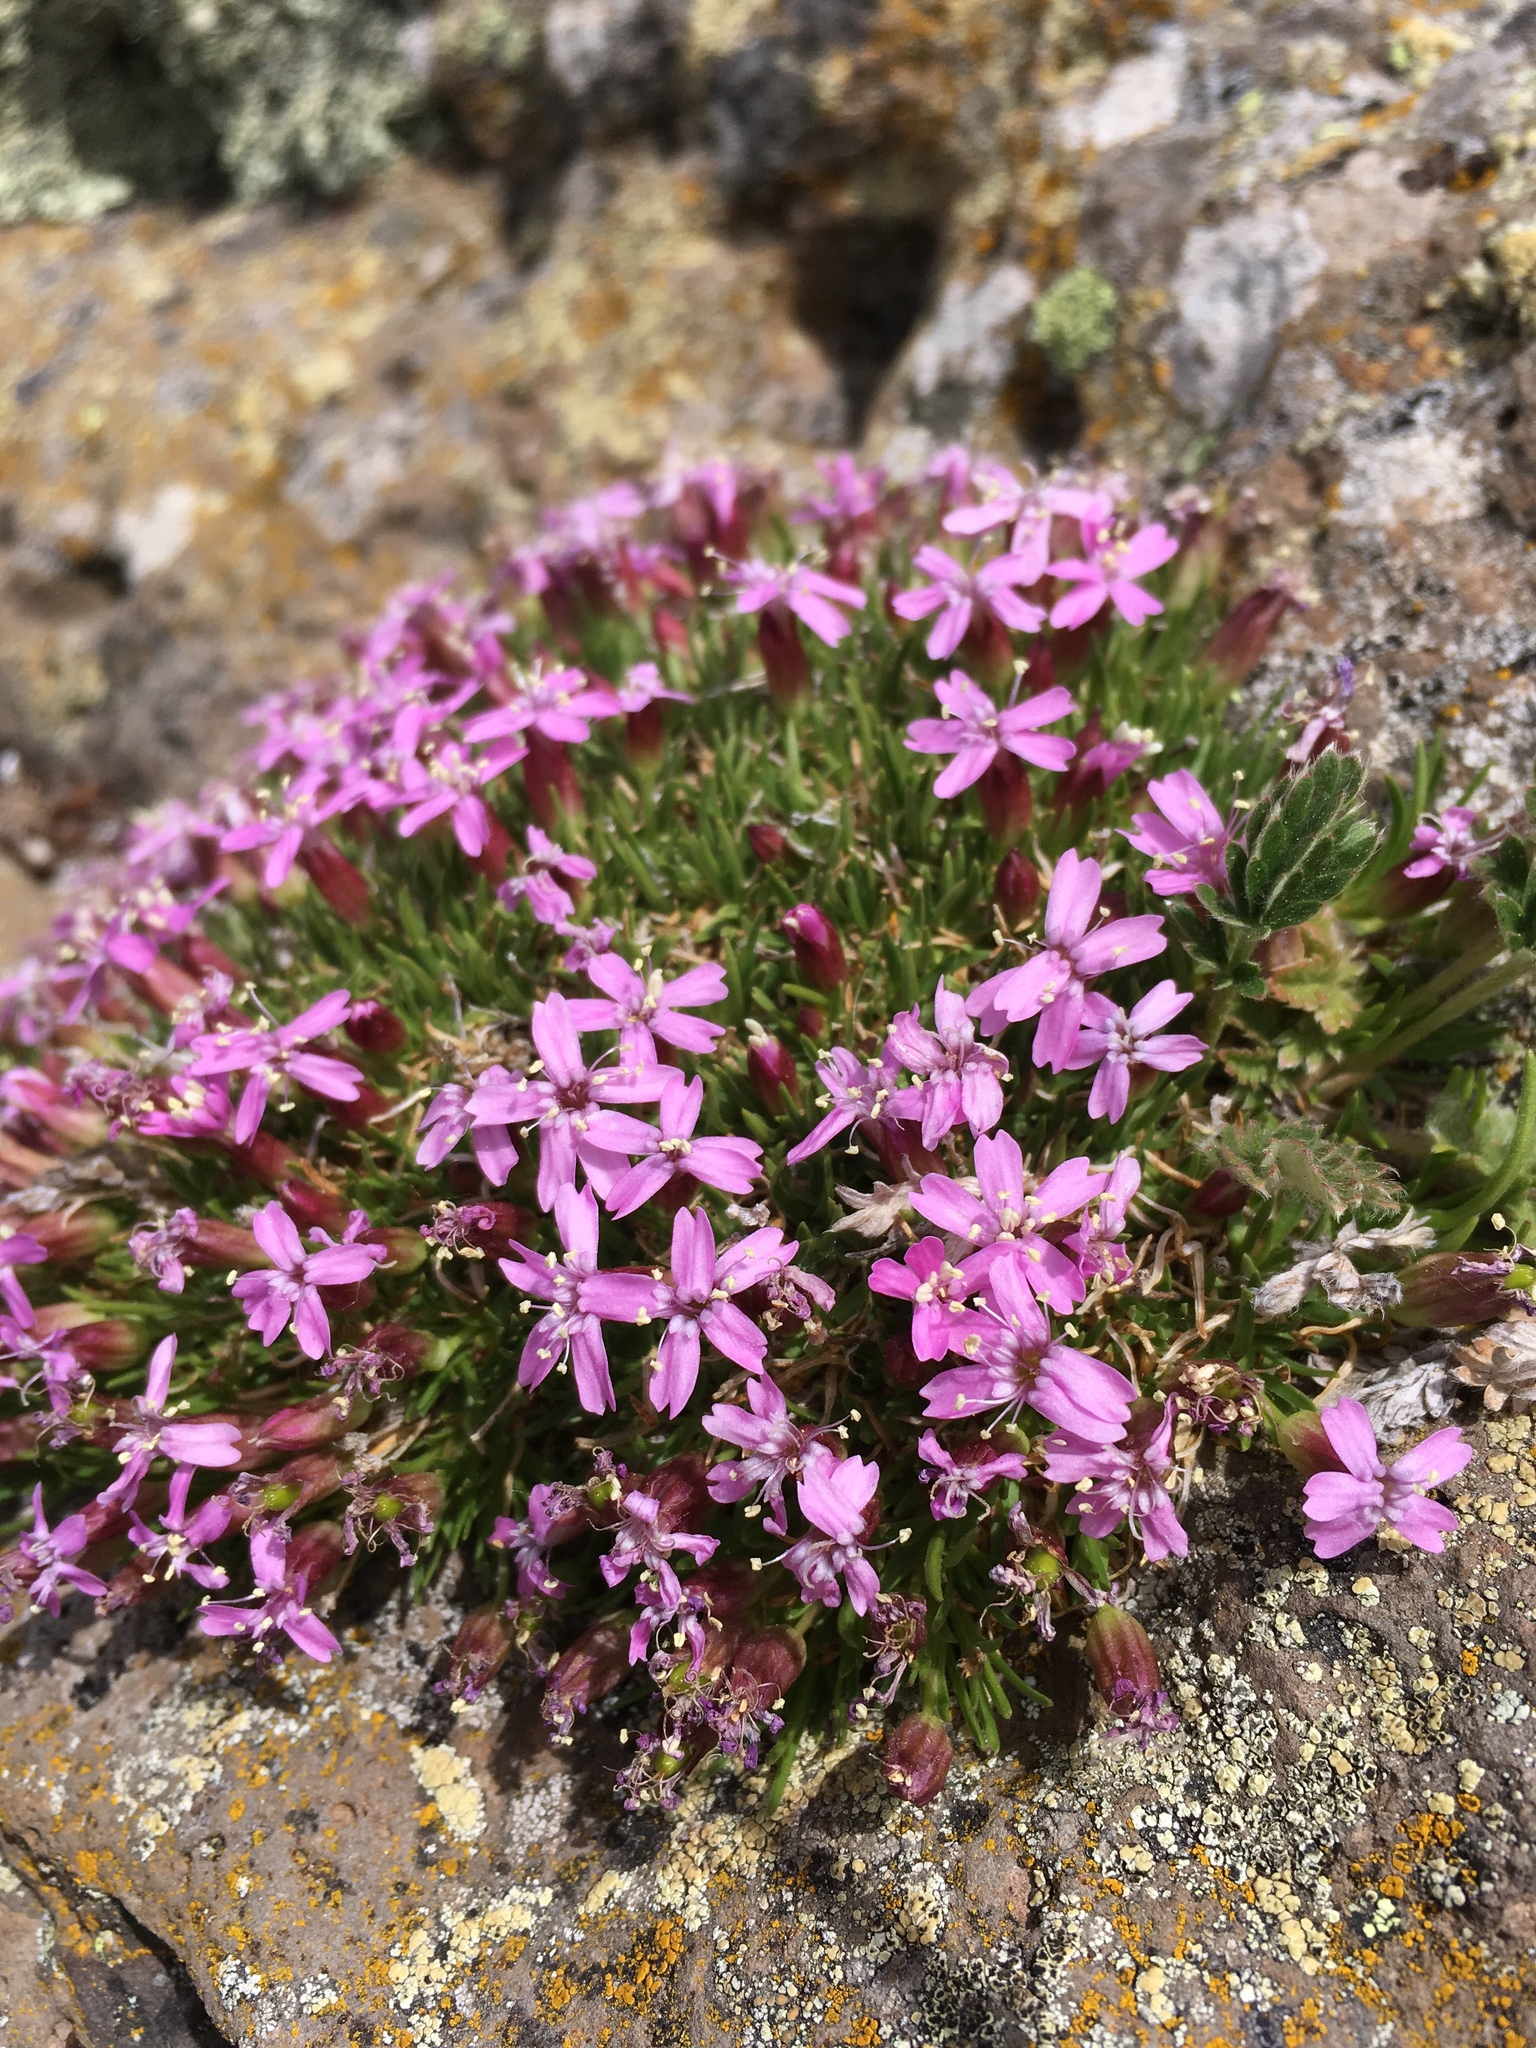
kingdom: Plantae
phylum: Tracheophyta
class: Magnoliopsida
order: Caryophyllales
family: Caryophyllaceae
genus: Silene
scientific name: Silene acaulis
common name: Moss campion
